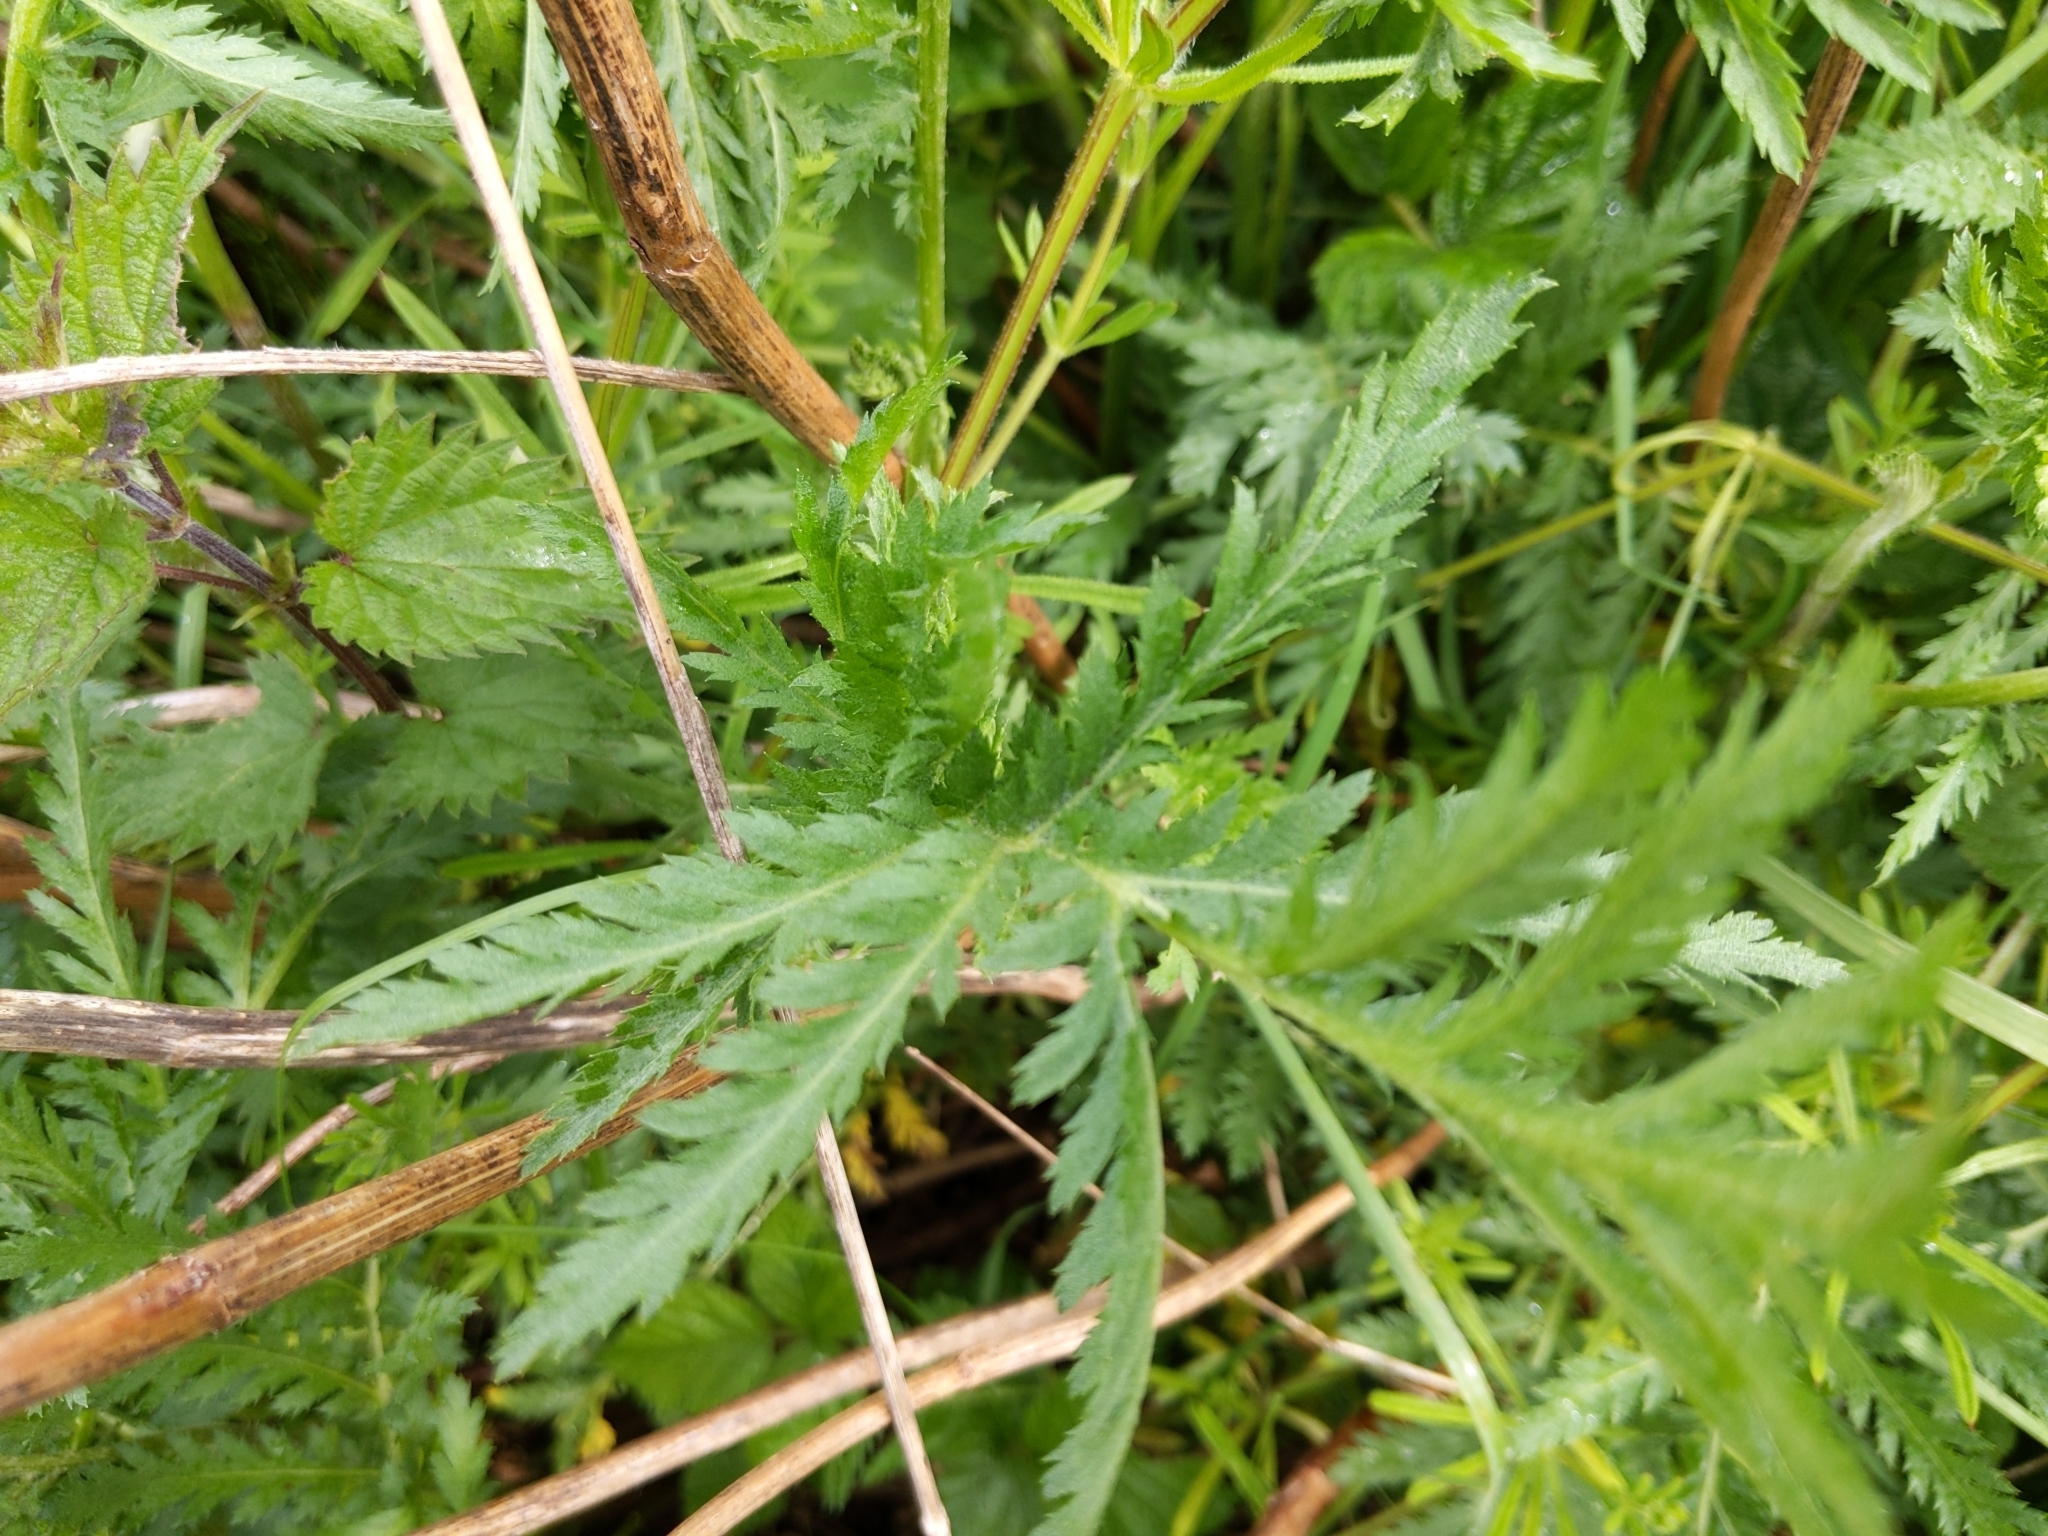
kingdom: Plantae
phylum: Tracheophyta
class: Magnoliopsida
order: Asterales
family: Asteraceae
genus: Tanacetum
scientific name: Tanacetum vulgare
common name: Common tansy
